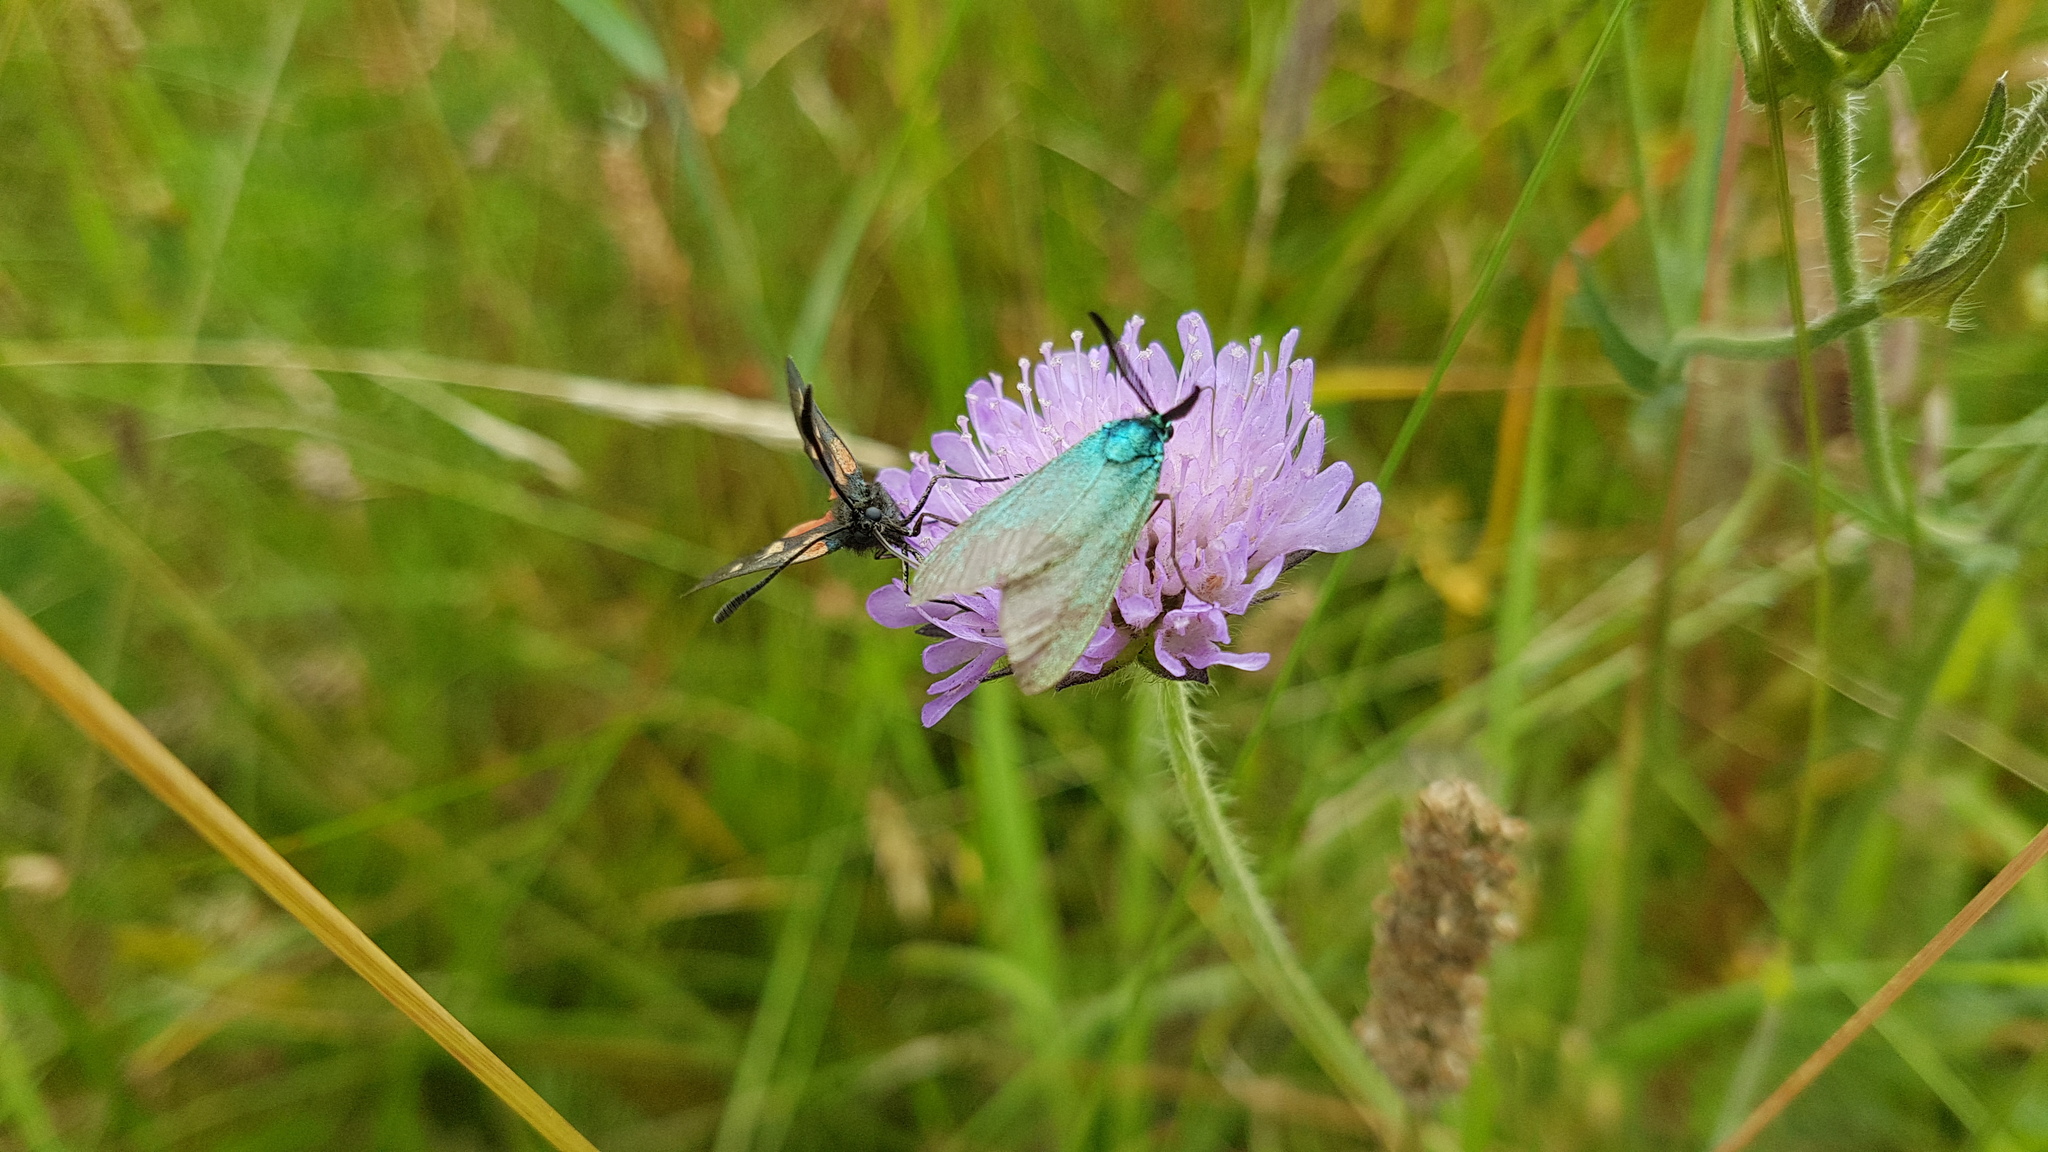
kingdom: Animalia
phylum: Arthropoda
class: Insecta
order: Lepidoptera
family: Zygaenidae
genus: Adscita
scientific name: Adscita statices
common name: Forester
